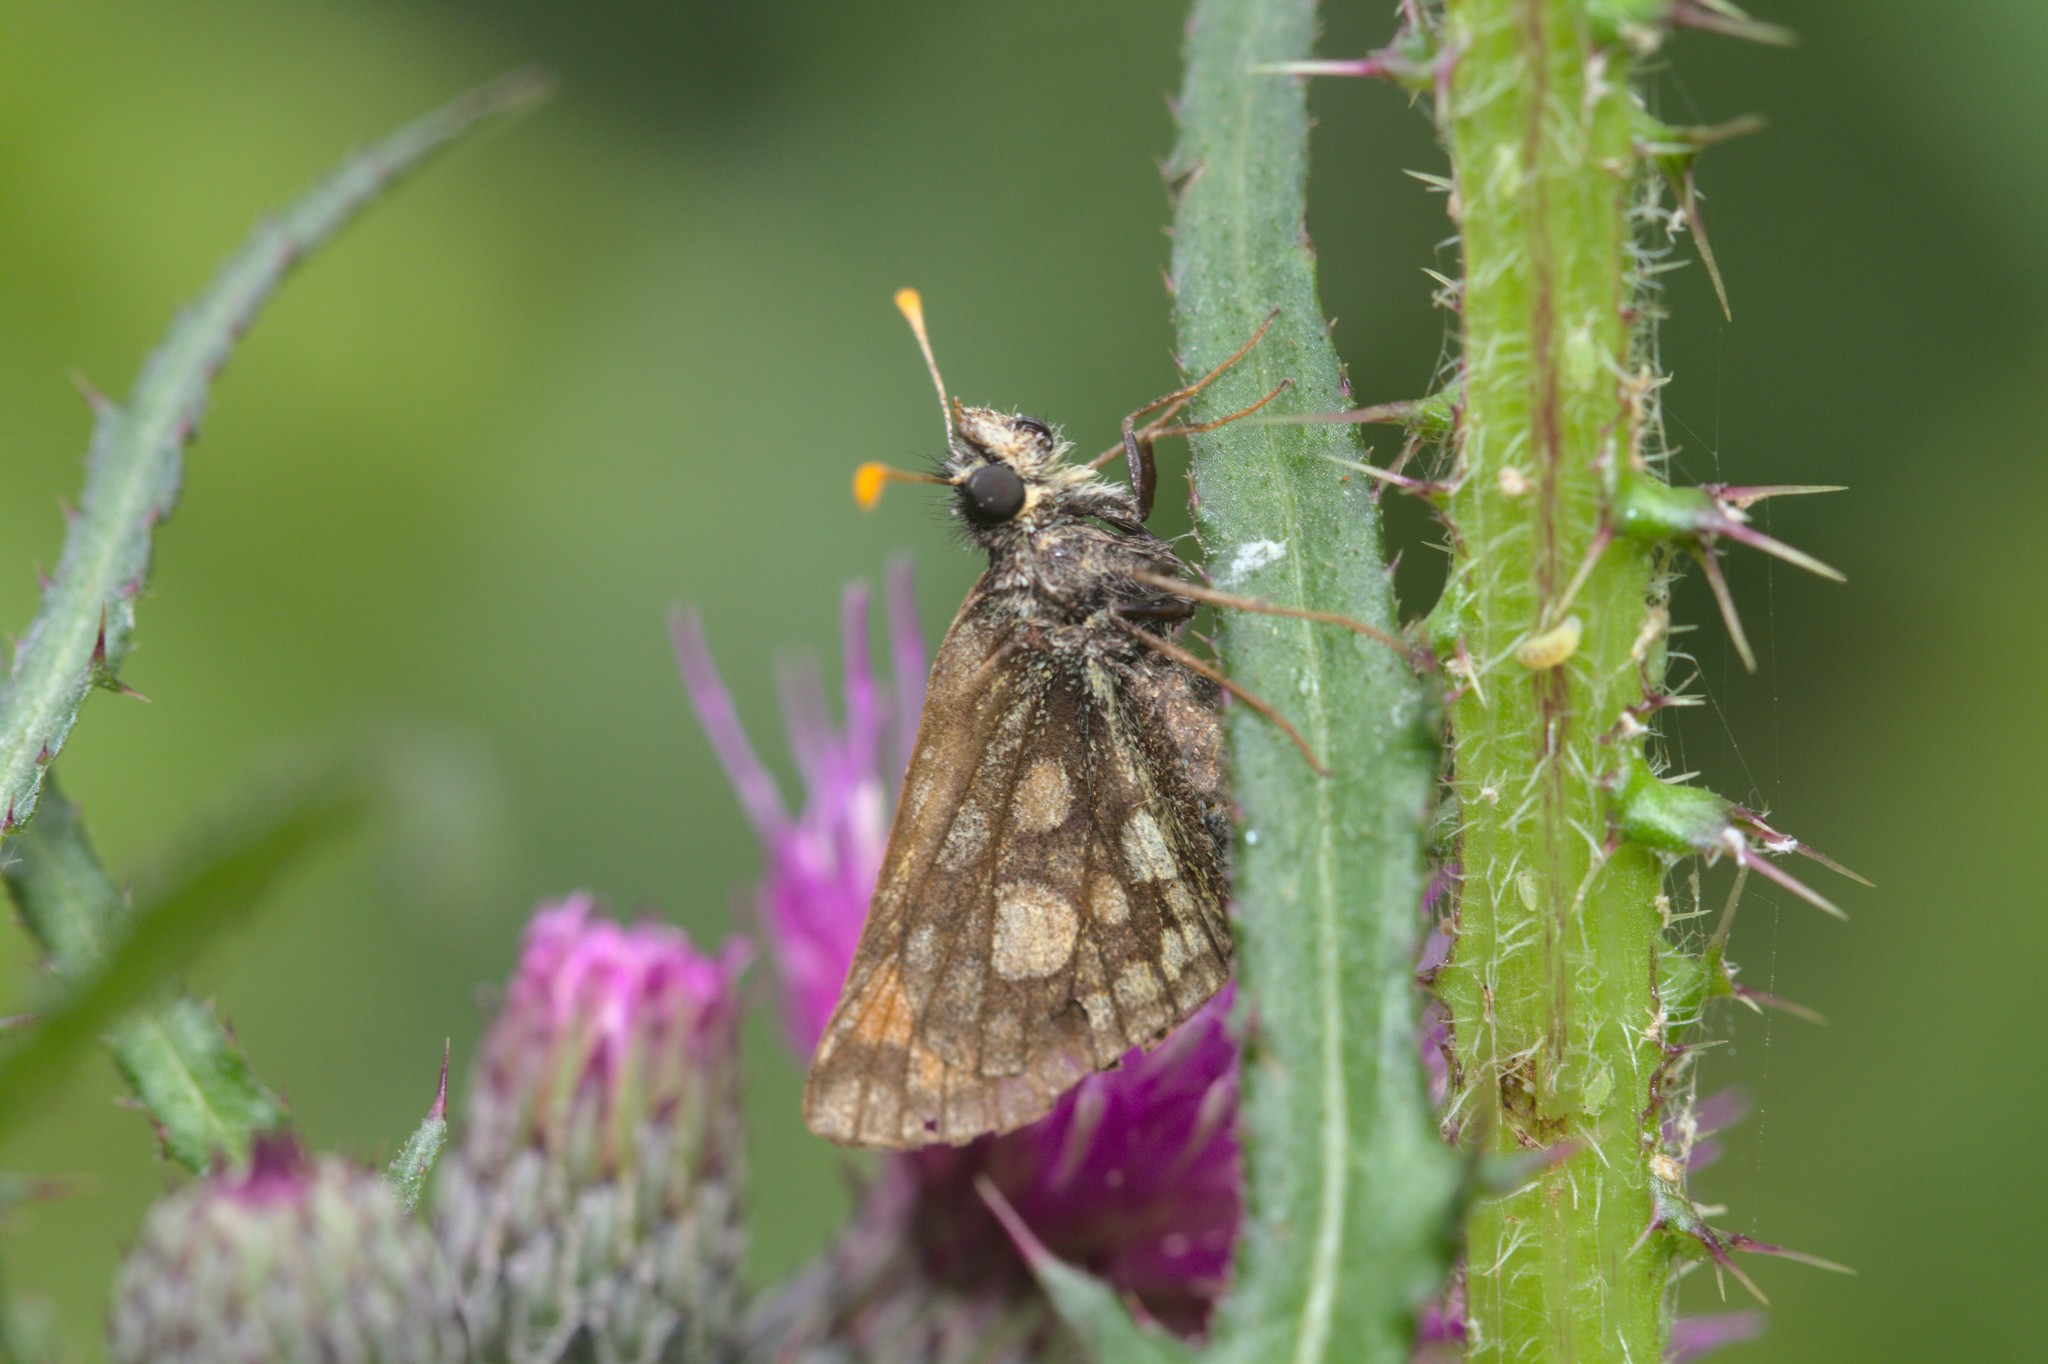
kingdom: Animalia
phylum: Arthropoda
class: Insecta
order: Lepidoptera
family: Hesperiidae
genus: Carterocephalus
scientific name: Carterocephalus palaemon
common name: Chequered skipper
